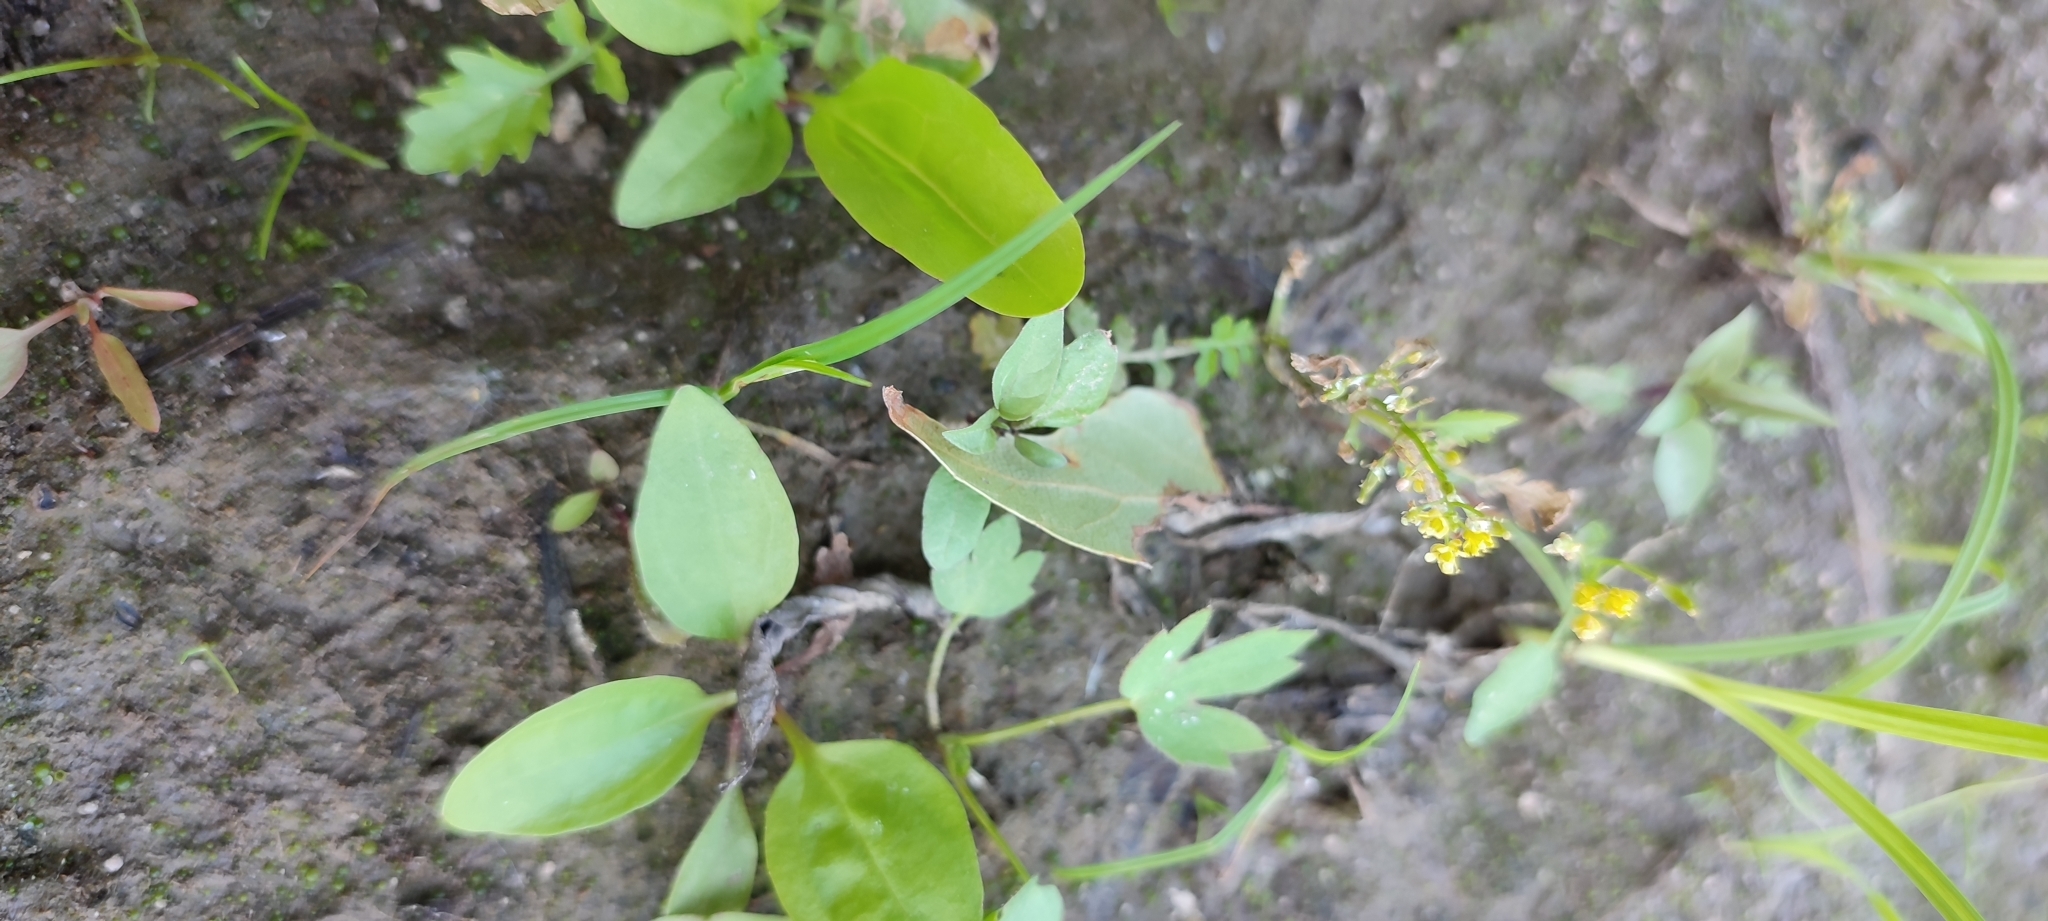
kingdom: Plantae
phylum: Tracheophyta
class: Magnoliopsida
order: Brassicales
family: Brassicaceae
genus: Rorippa
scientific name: Rorippa palustris
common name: Marsh yellow-cress
